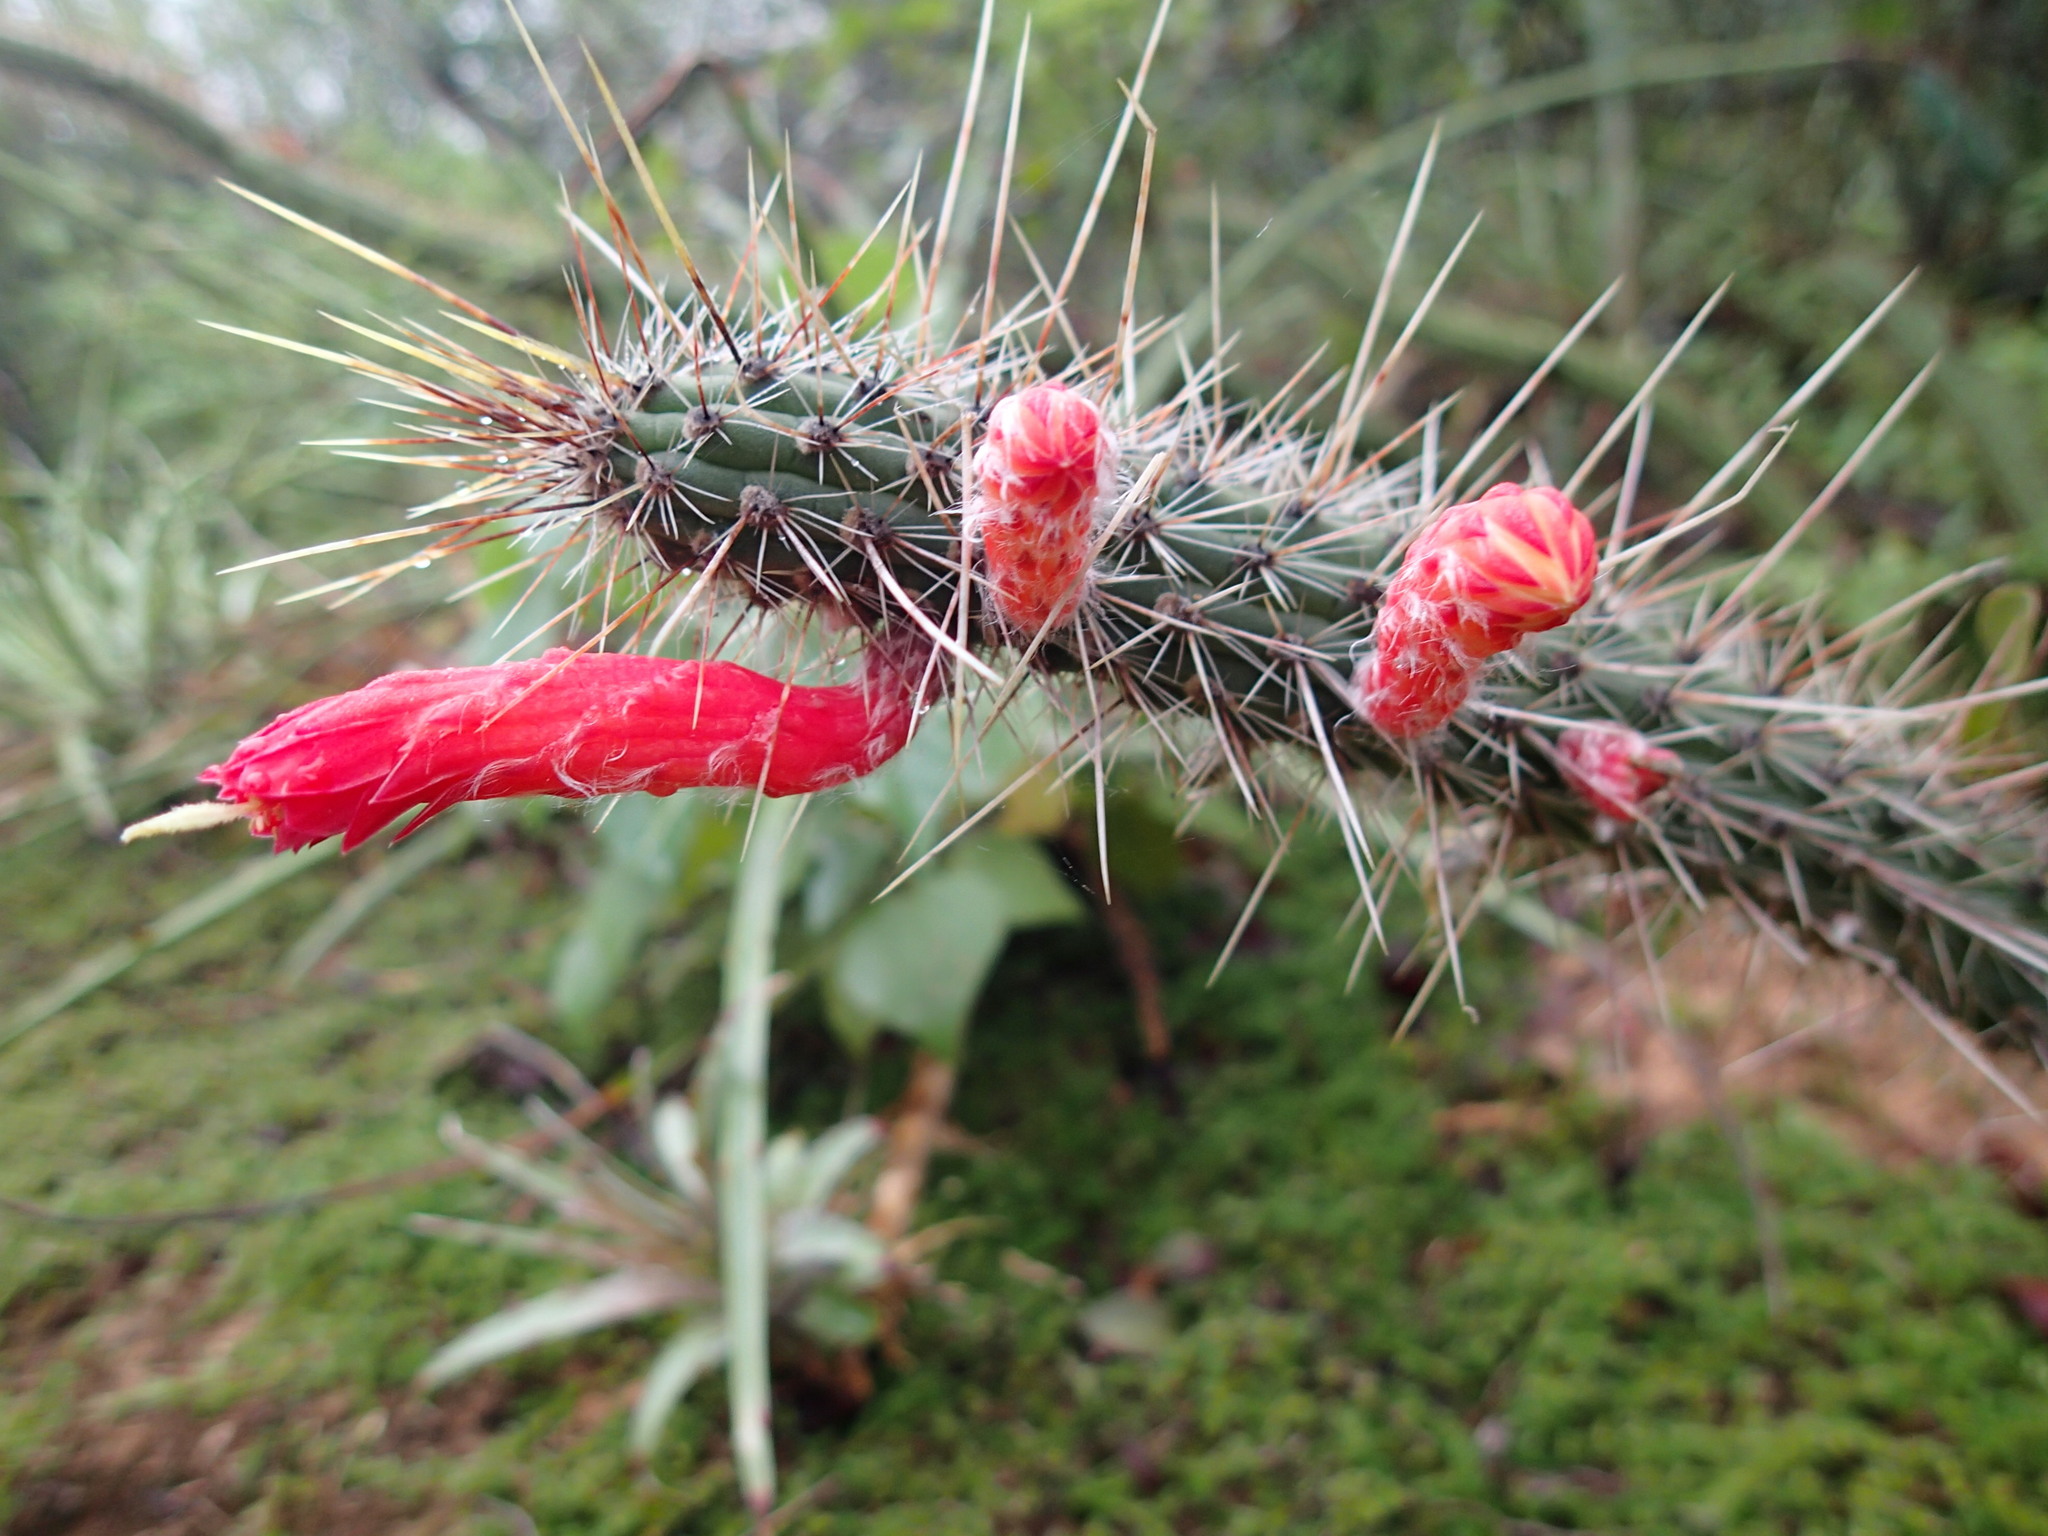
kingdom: Plantae
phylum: Tracheophyta
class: Magnoliopsida
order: Caryophyllales
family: Cactaceae
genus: Cleistocactus
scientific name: Cleistocactus baumannii
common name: Scarlet-bugler
